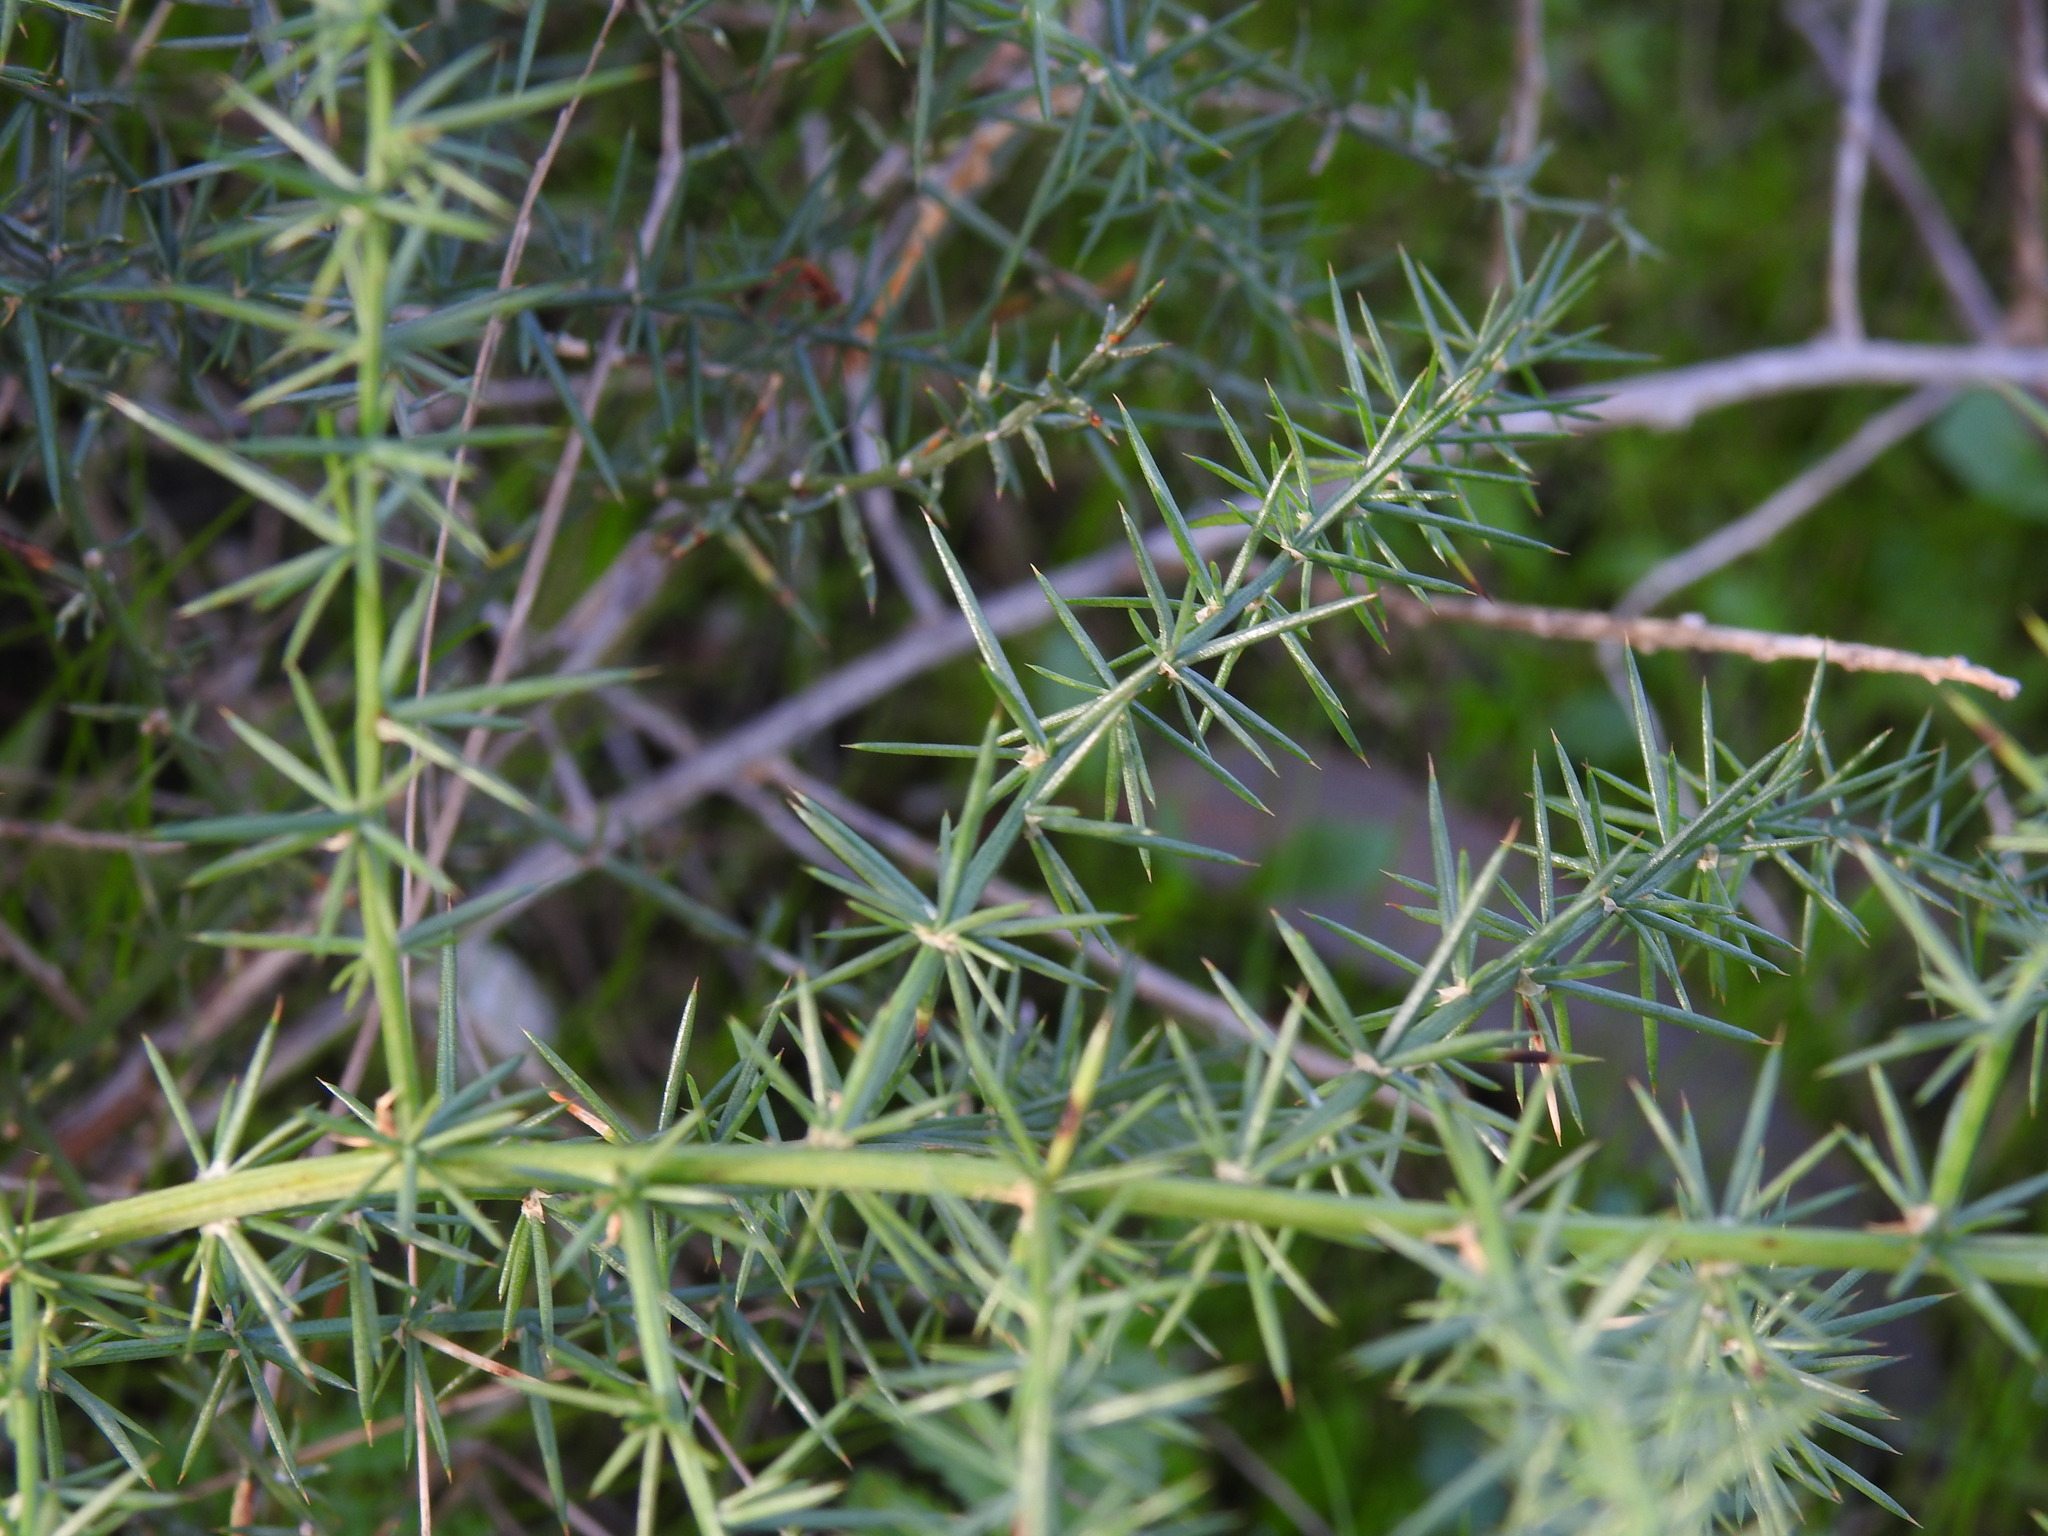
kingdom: Plantae
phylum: Tracheophyta
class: Liliopsida
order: Asparagales
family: Asparagaceae
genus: Asparagus
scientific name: Asparagus aphyllus
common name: Mediterranean asparagus
